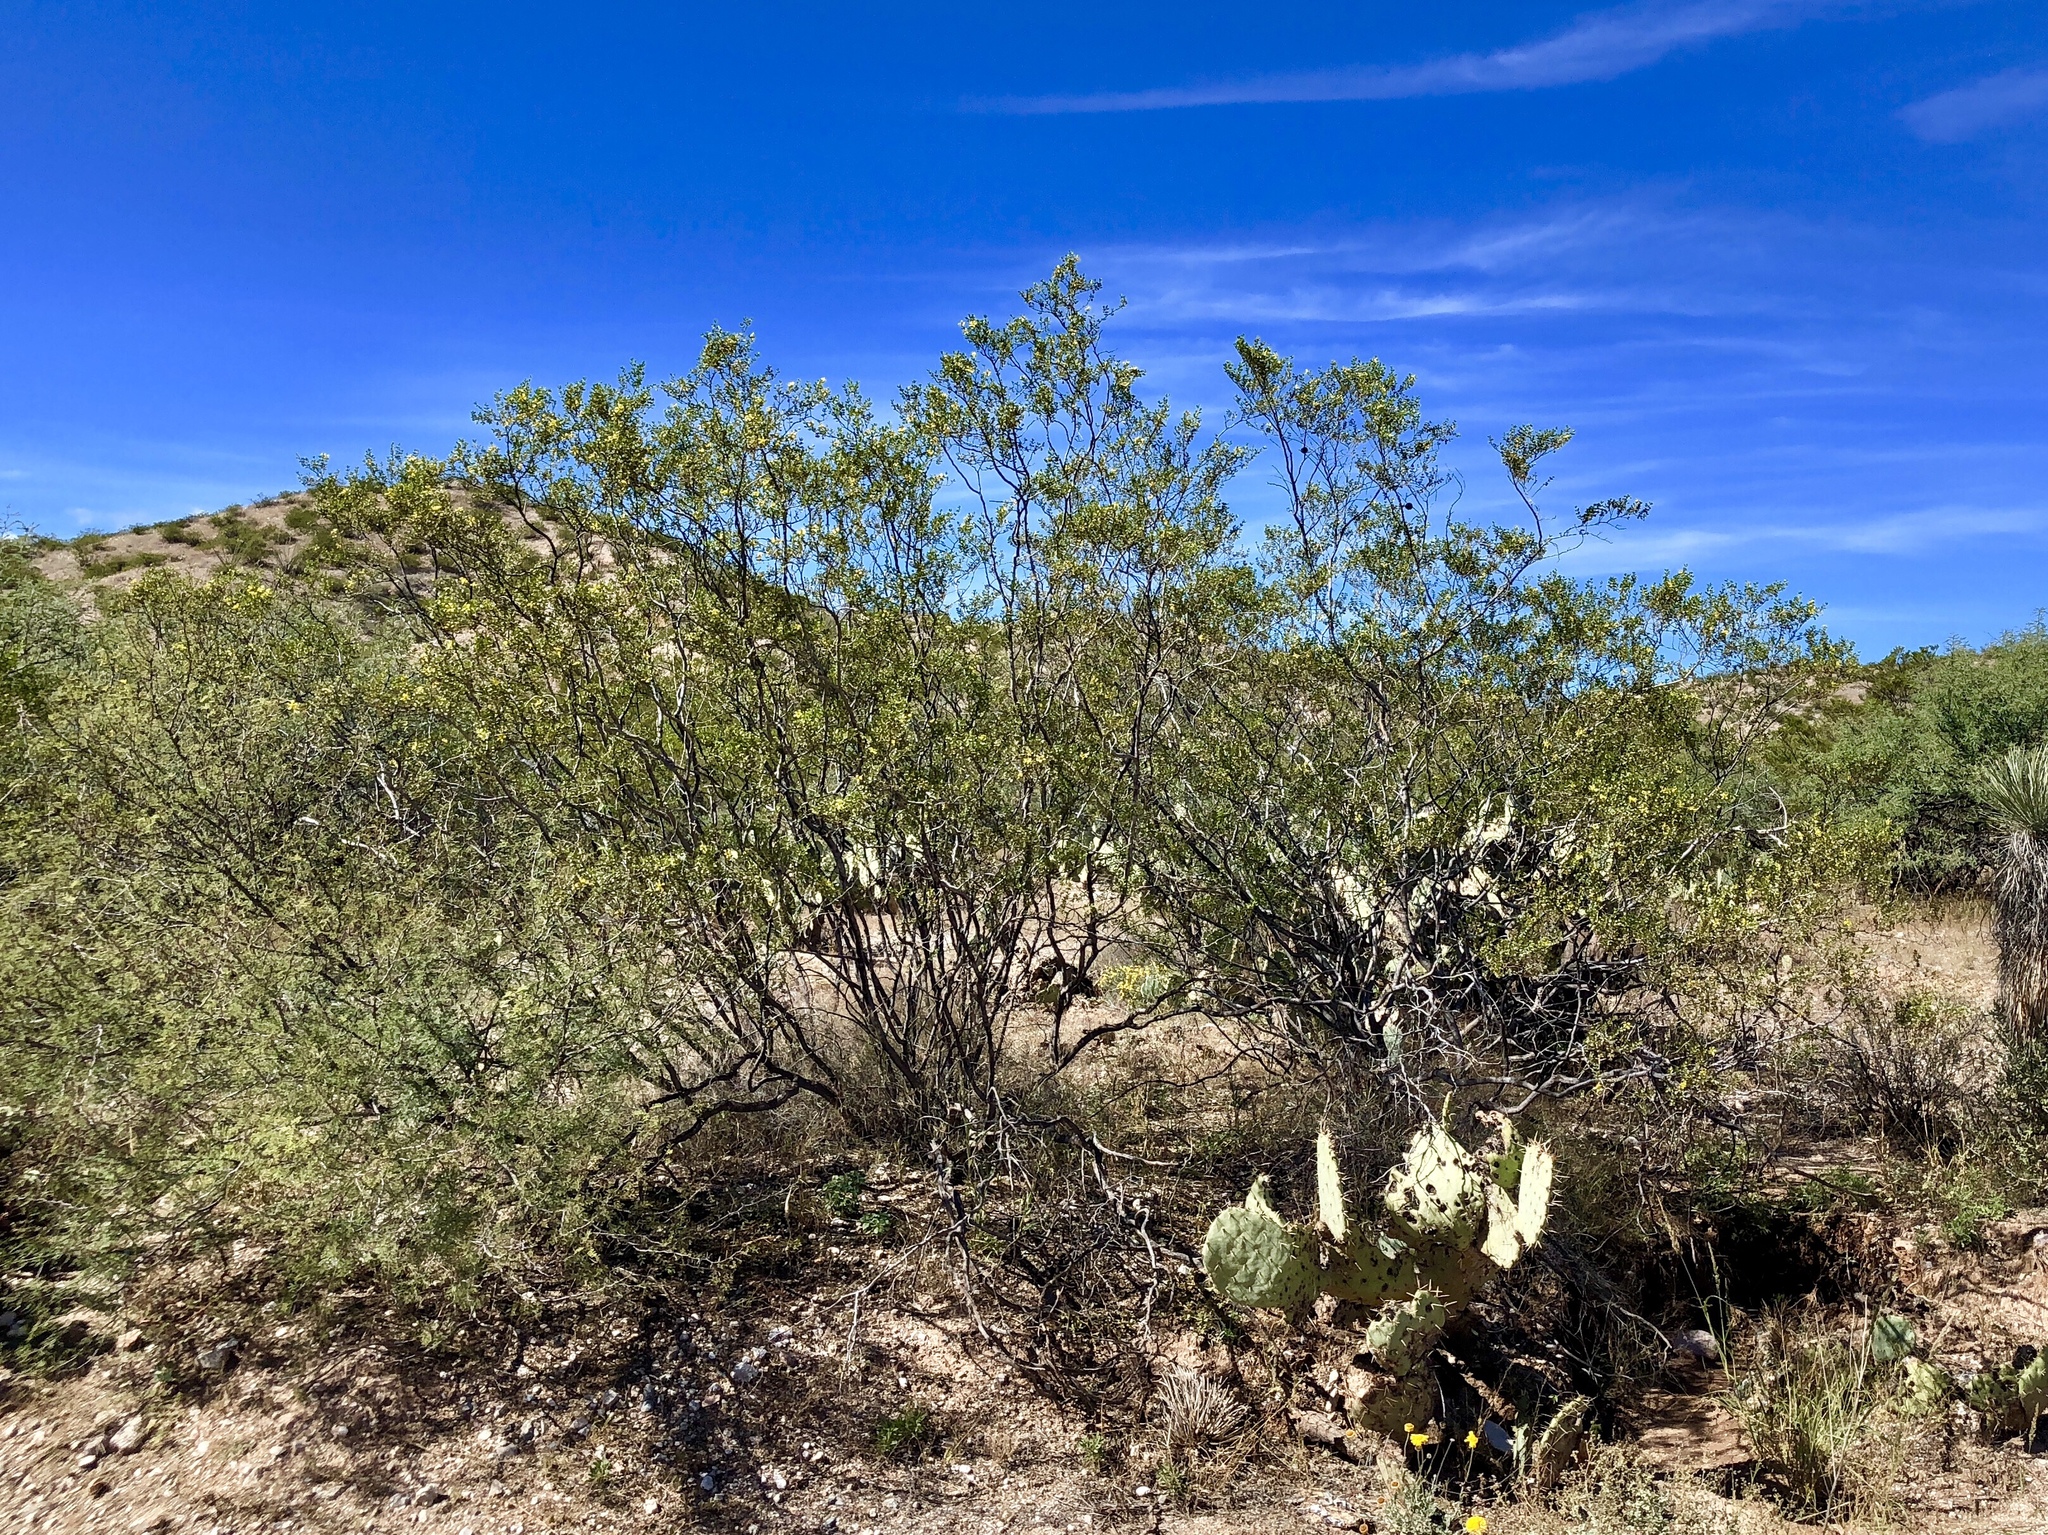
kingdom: Plantae
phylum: Tracheophyta
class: Magnoliopsida
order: Zygophyllales
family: Zygophyllaceae
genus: Larrea
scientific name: Larrea tridentata
